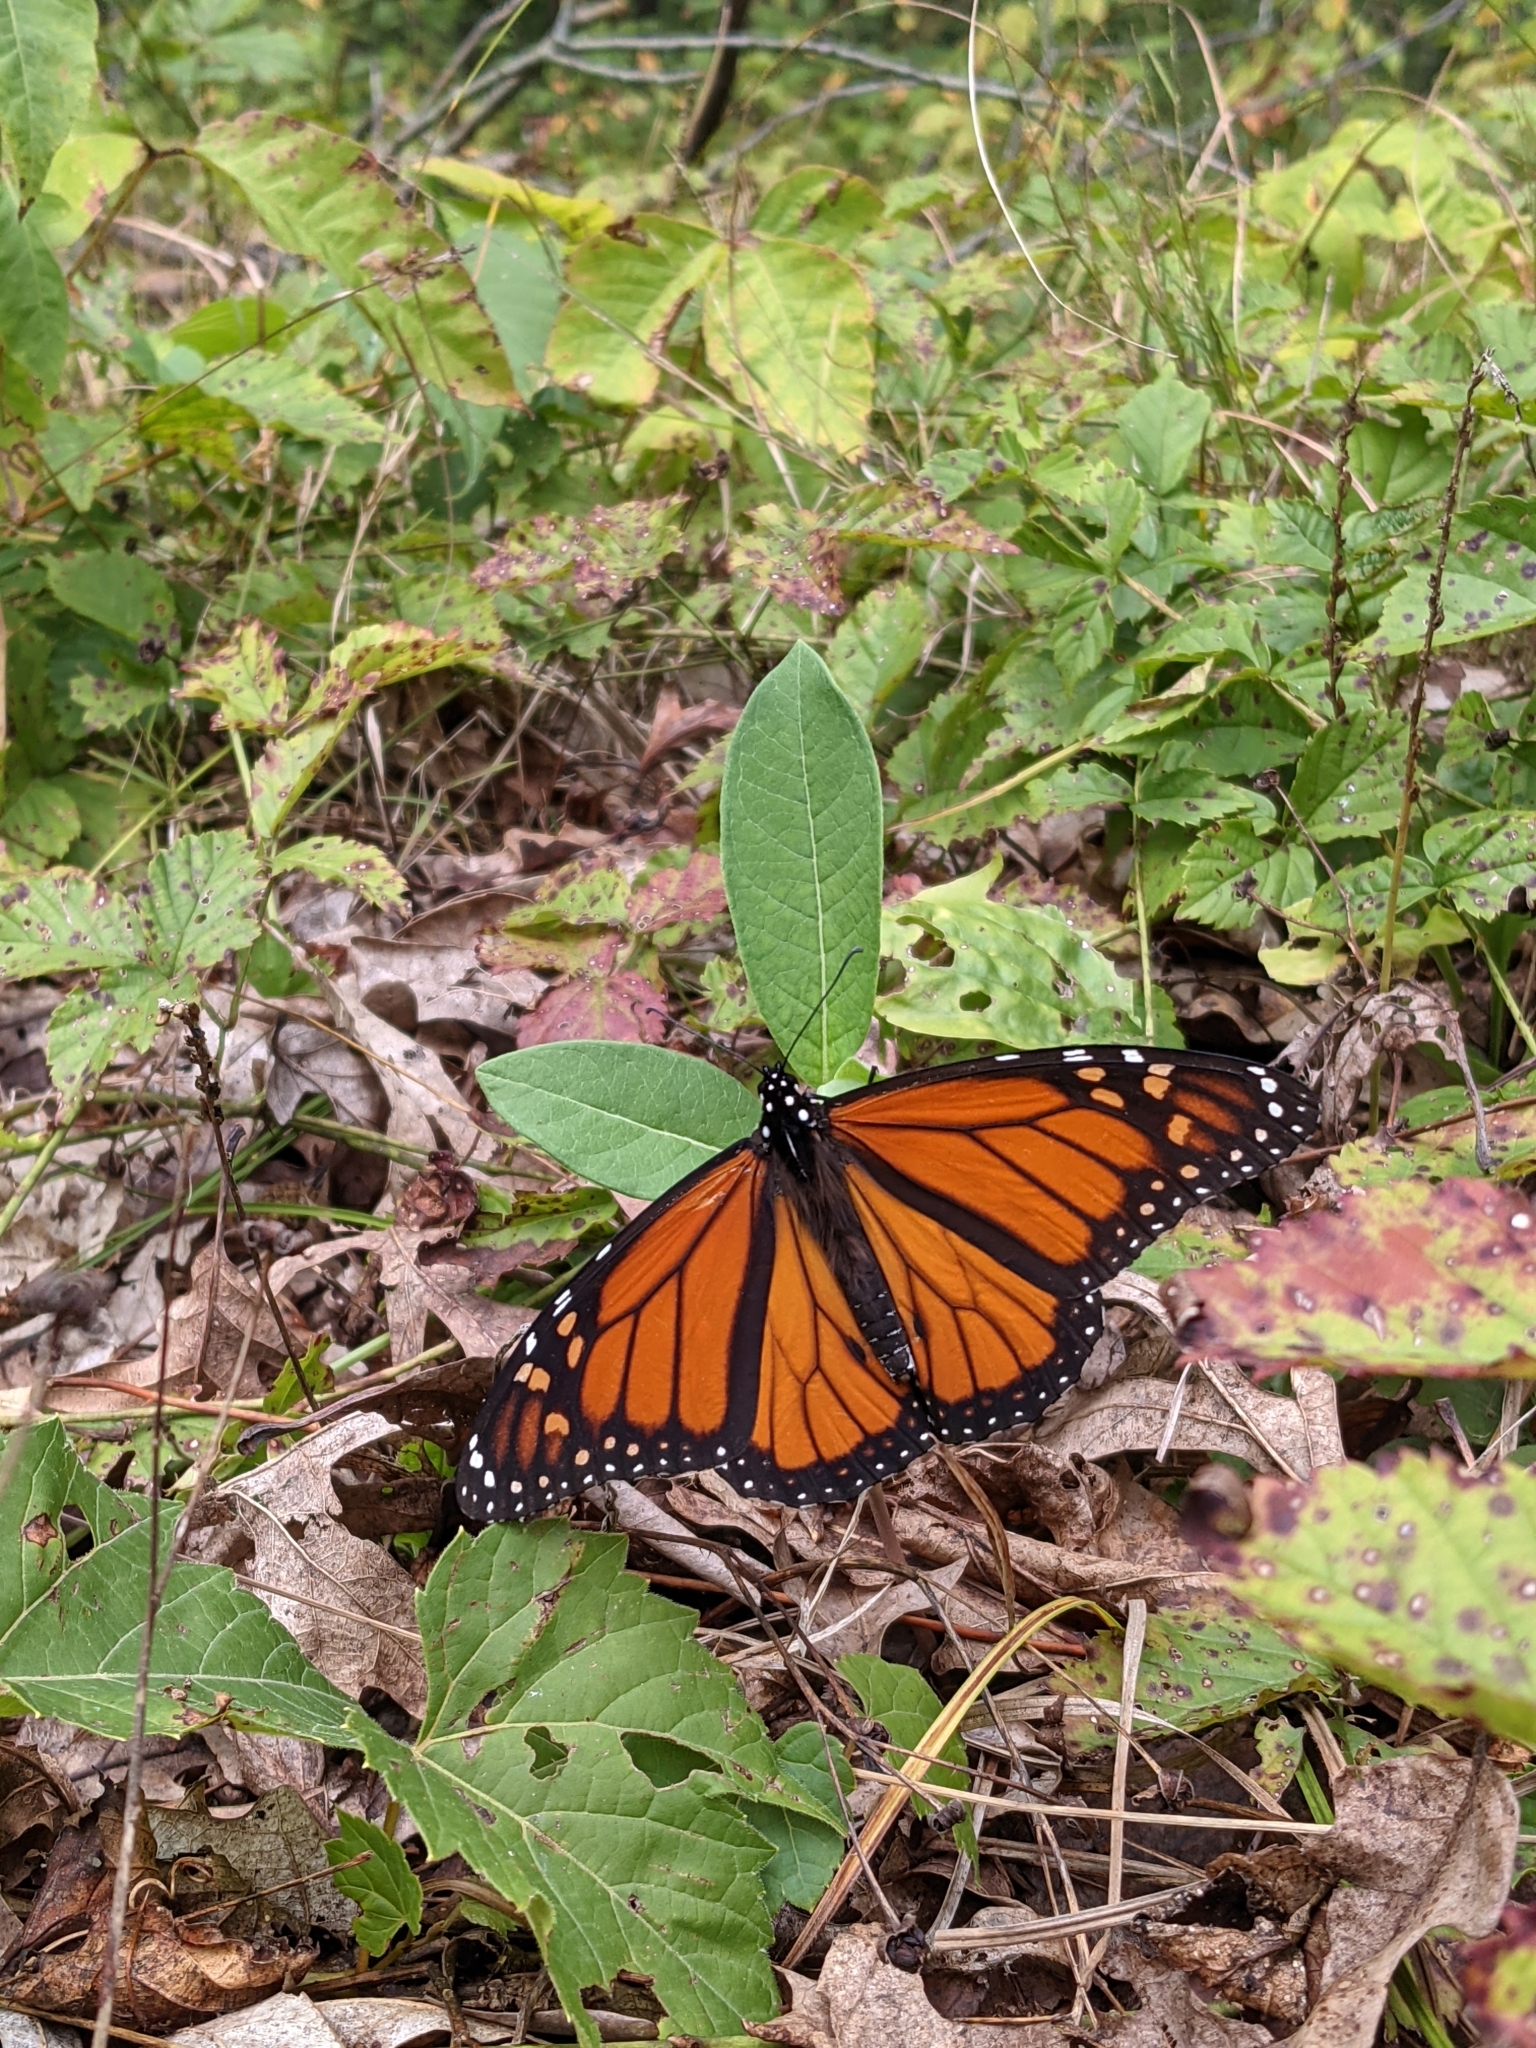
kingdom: Animalia
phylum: Arthropoda
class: Insecta
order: Lepidoptera
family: Nymphalidae
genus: Danaus
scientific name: Danaus plexippus
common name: Monarch
